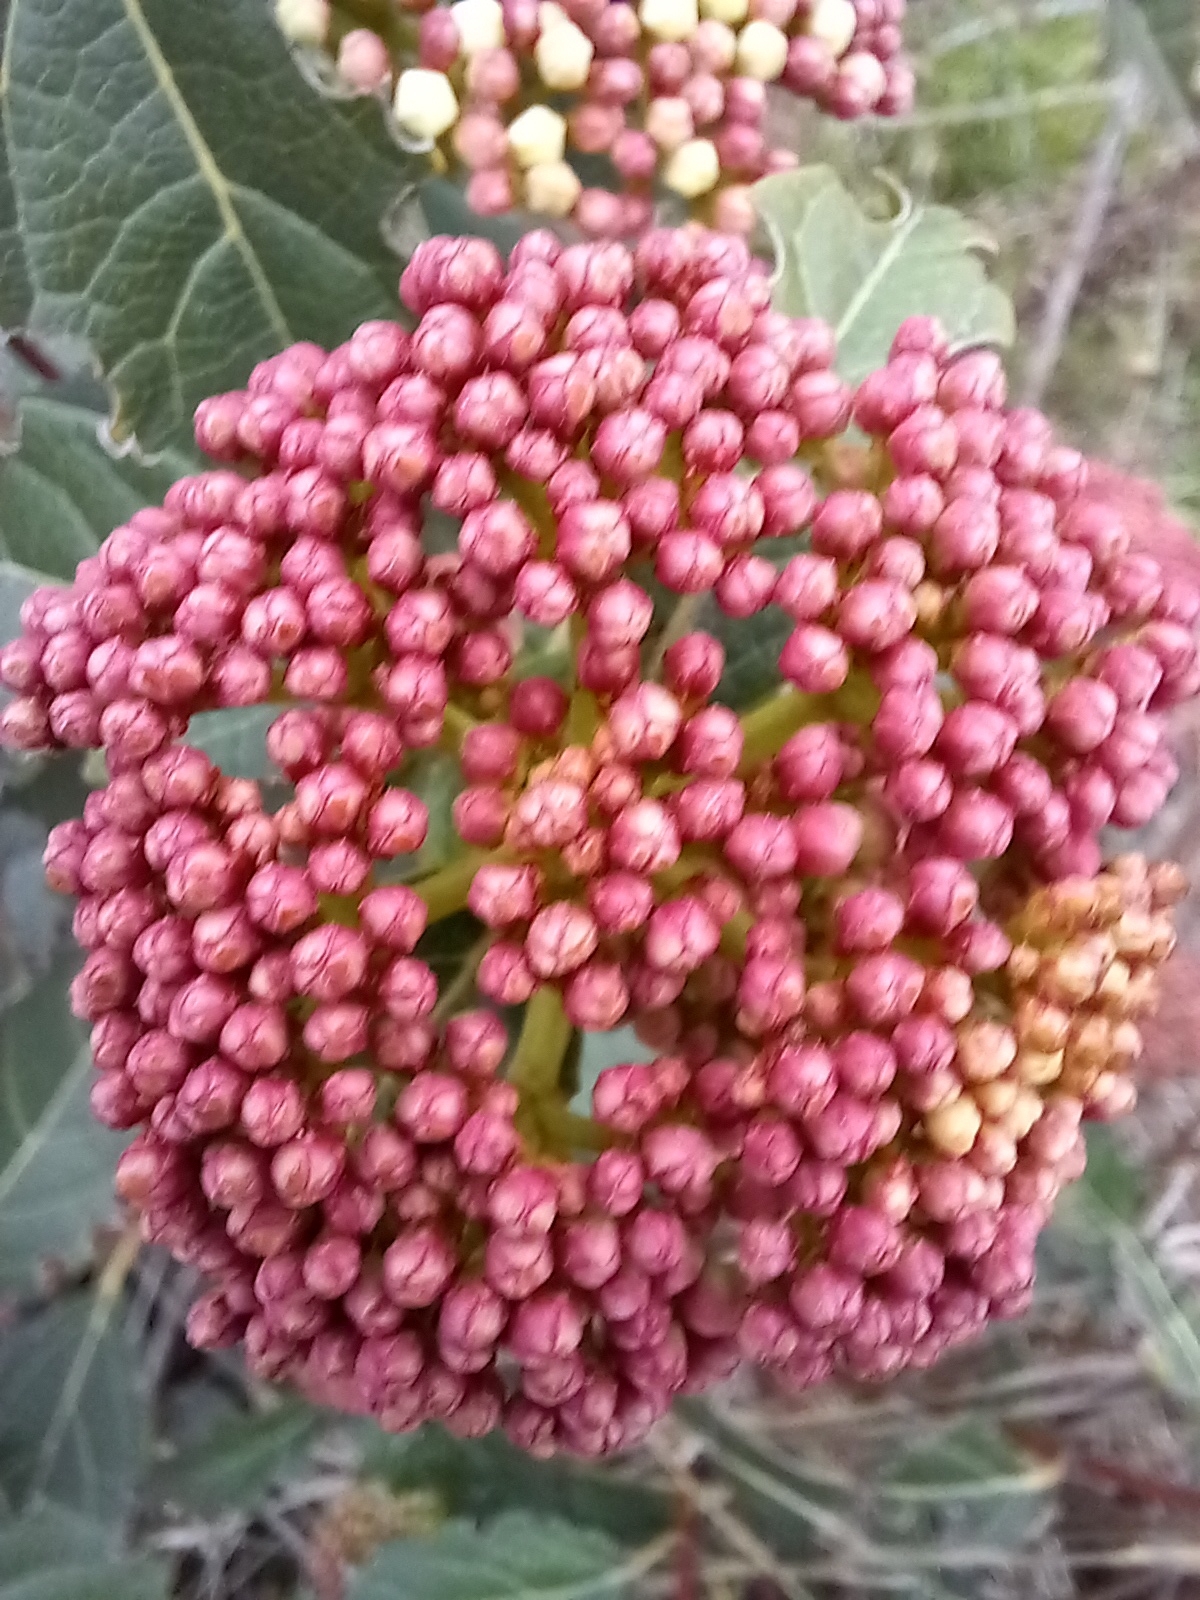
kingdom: Plantae
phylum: Tracheophyta
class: Magnoliopsida
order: Dipsacales
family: Viburnaceae
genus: Viburnum
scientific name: Viburnum tinus
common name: Laurustinus
